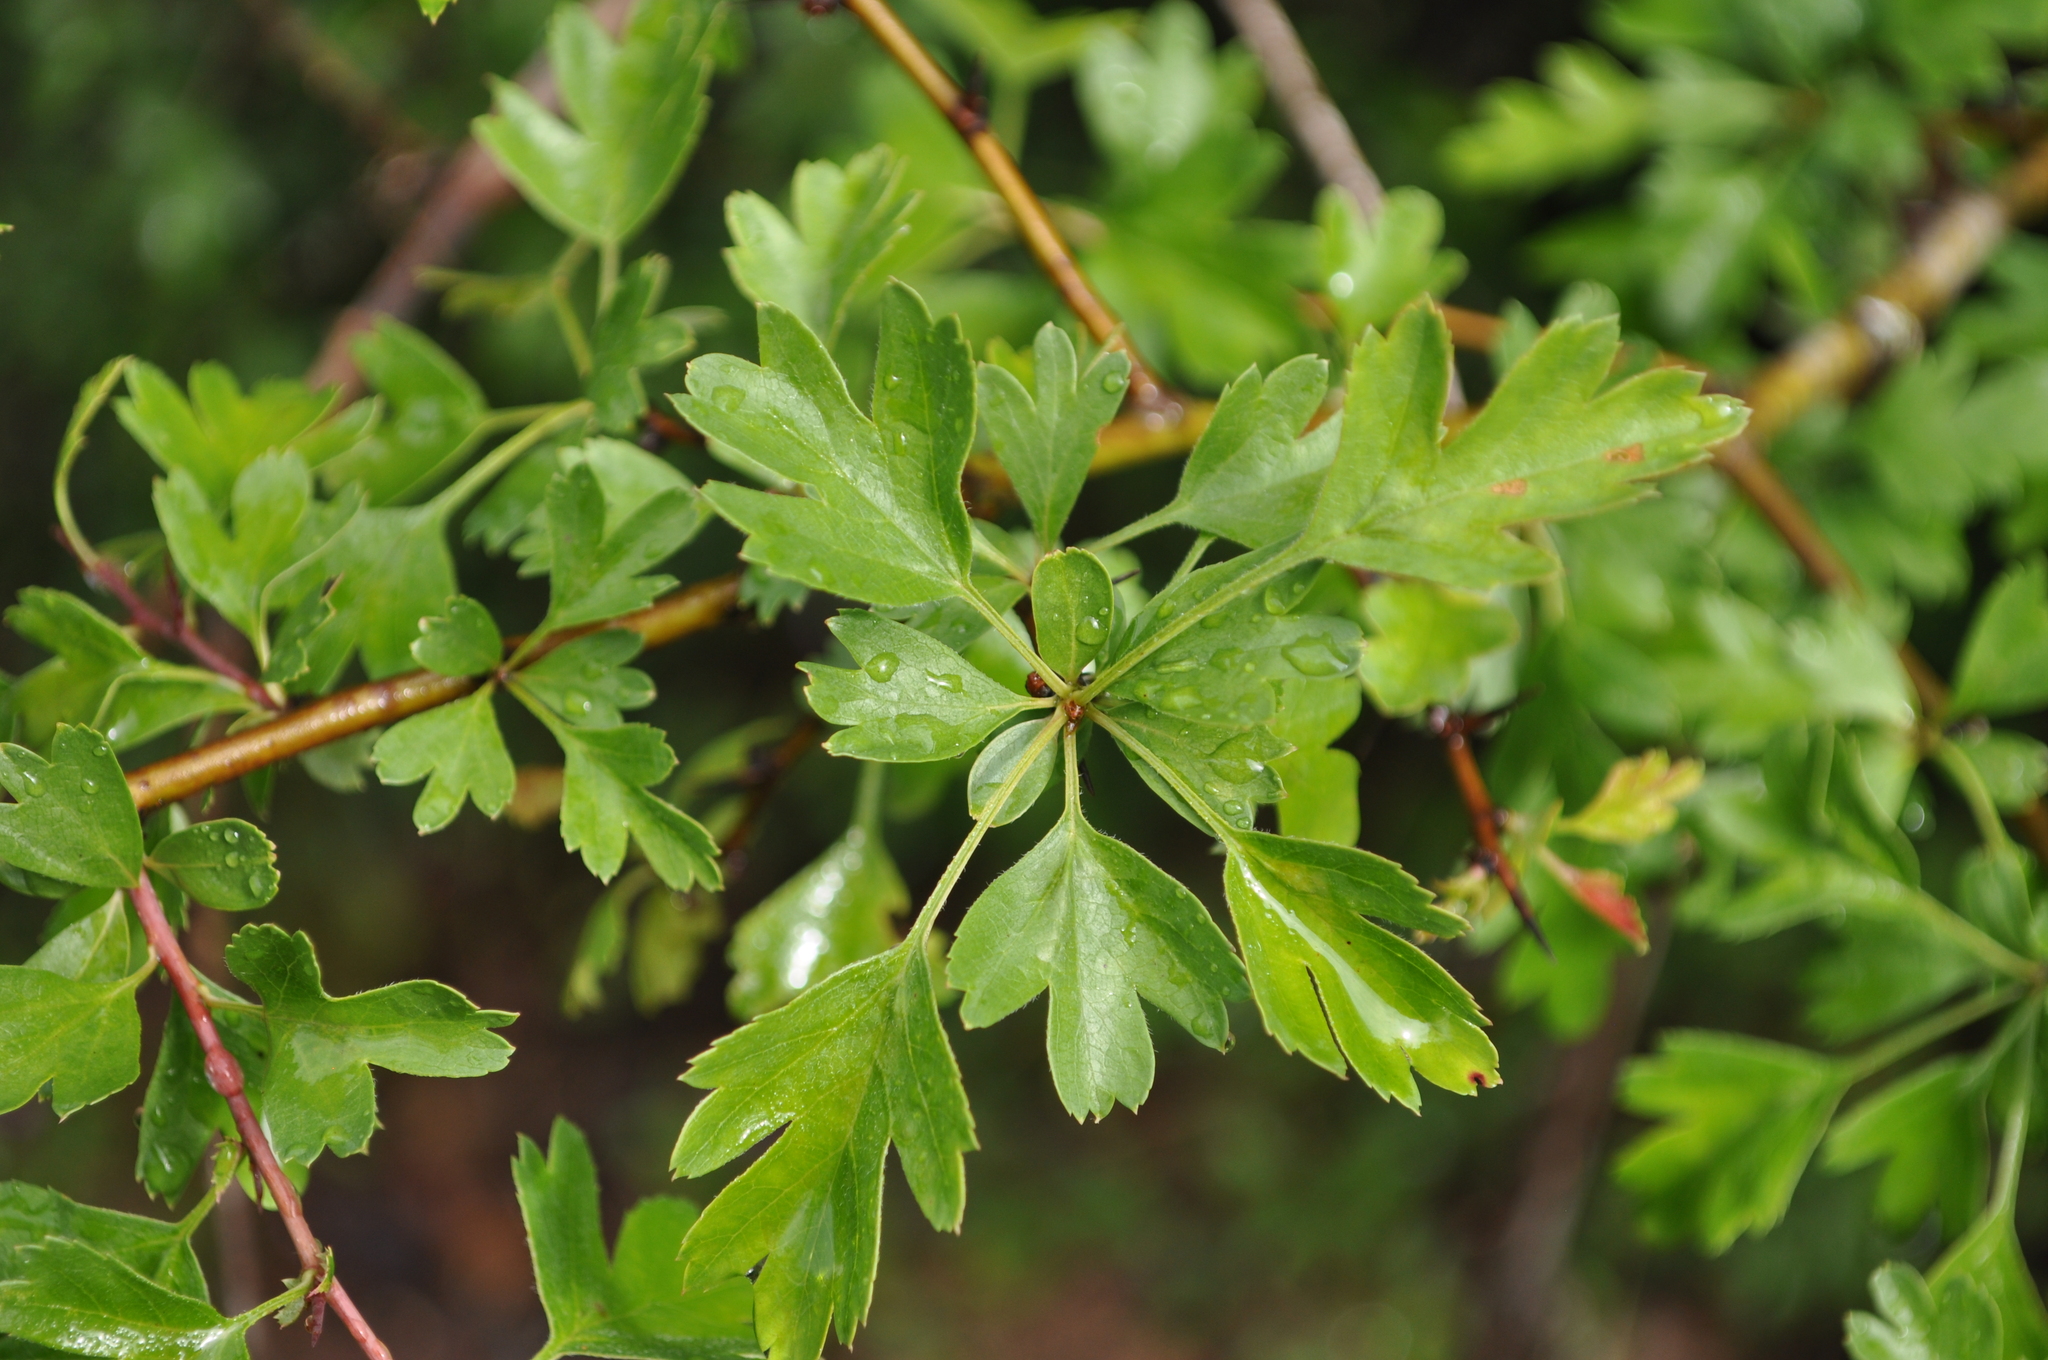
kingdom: Plantae
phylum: Tracheophyta
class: Magnoliopsida
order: Rosales
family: Rosaceae
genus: Crataegus
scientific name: Crataegus monogyna
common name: Hawthorn
